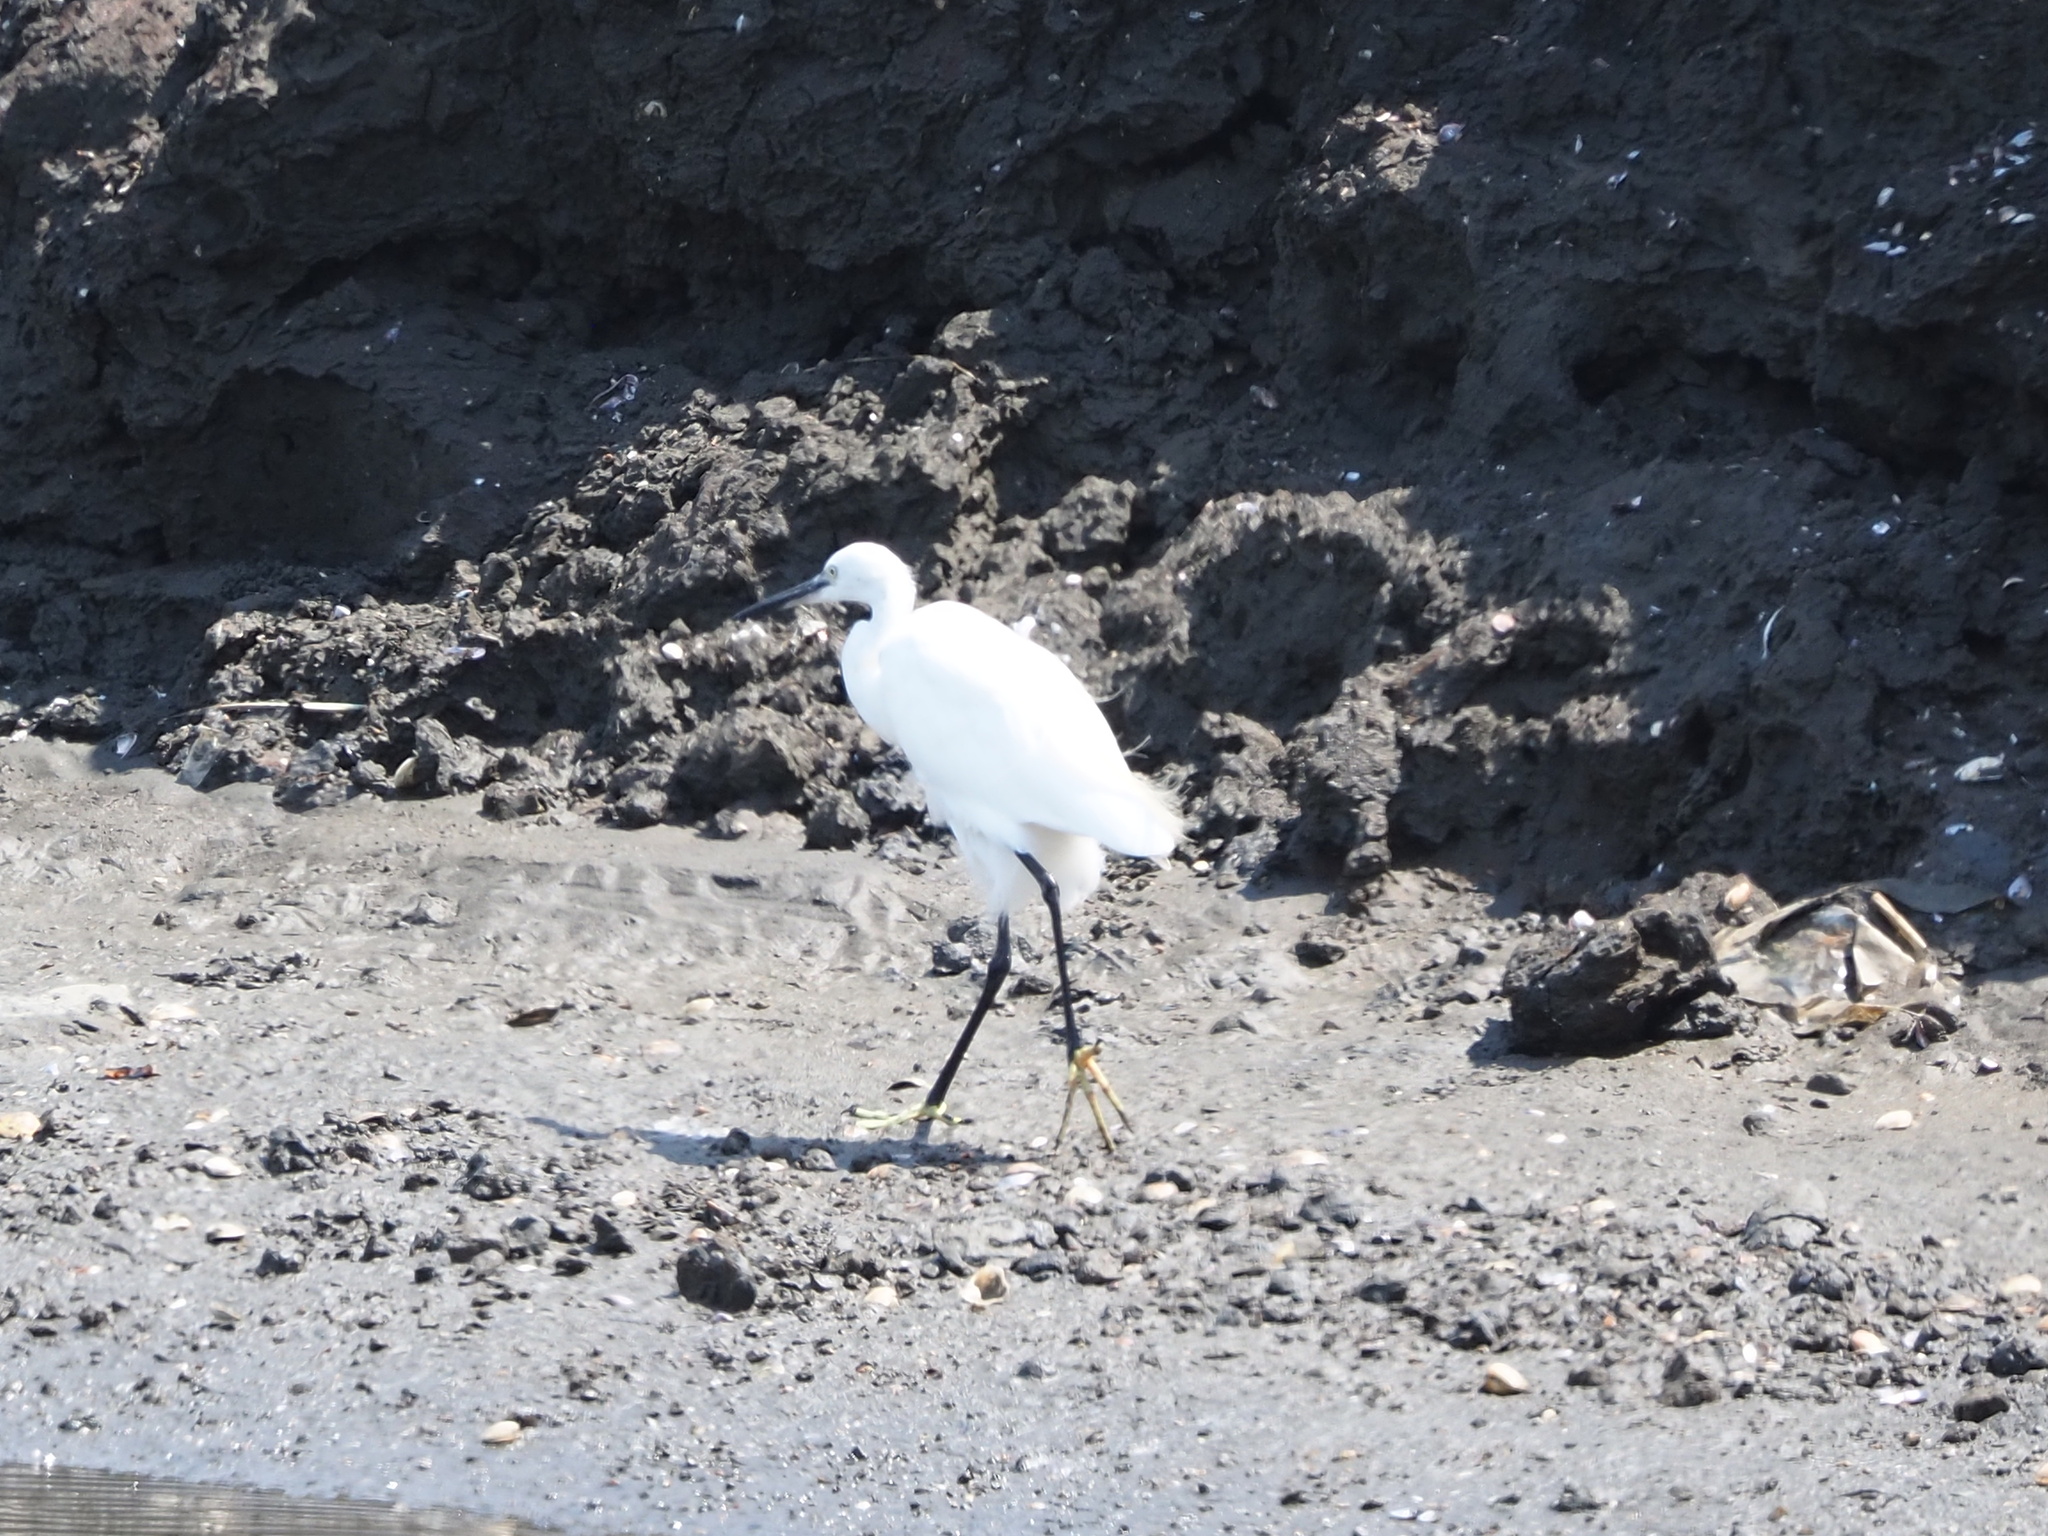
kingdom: Animalia
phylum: Chordata
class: Aves
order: Pelecaniformes
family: Ardeidae
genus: Egretta
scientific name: Egretta garzetta
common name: Little egret
